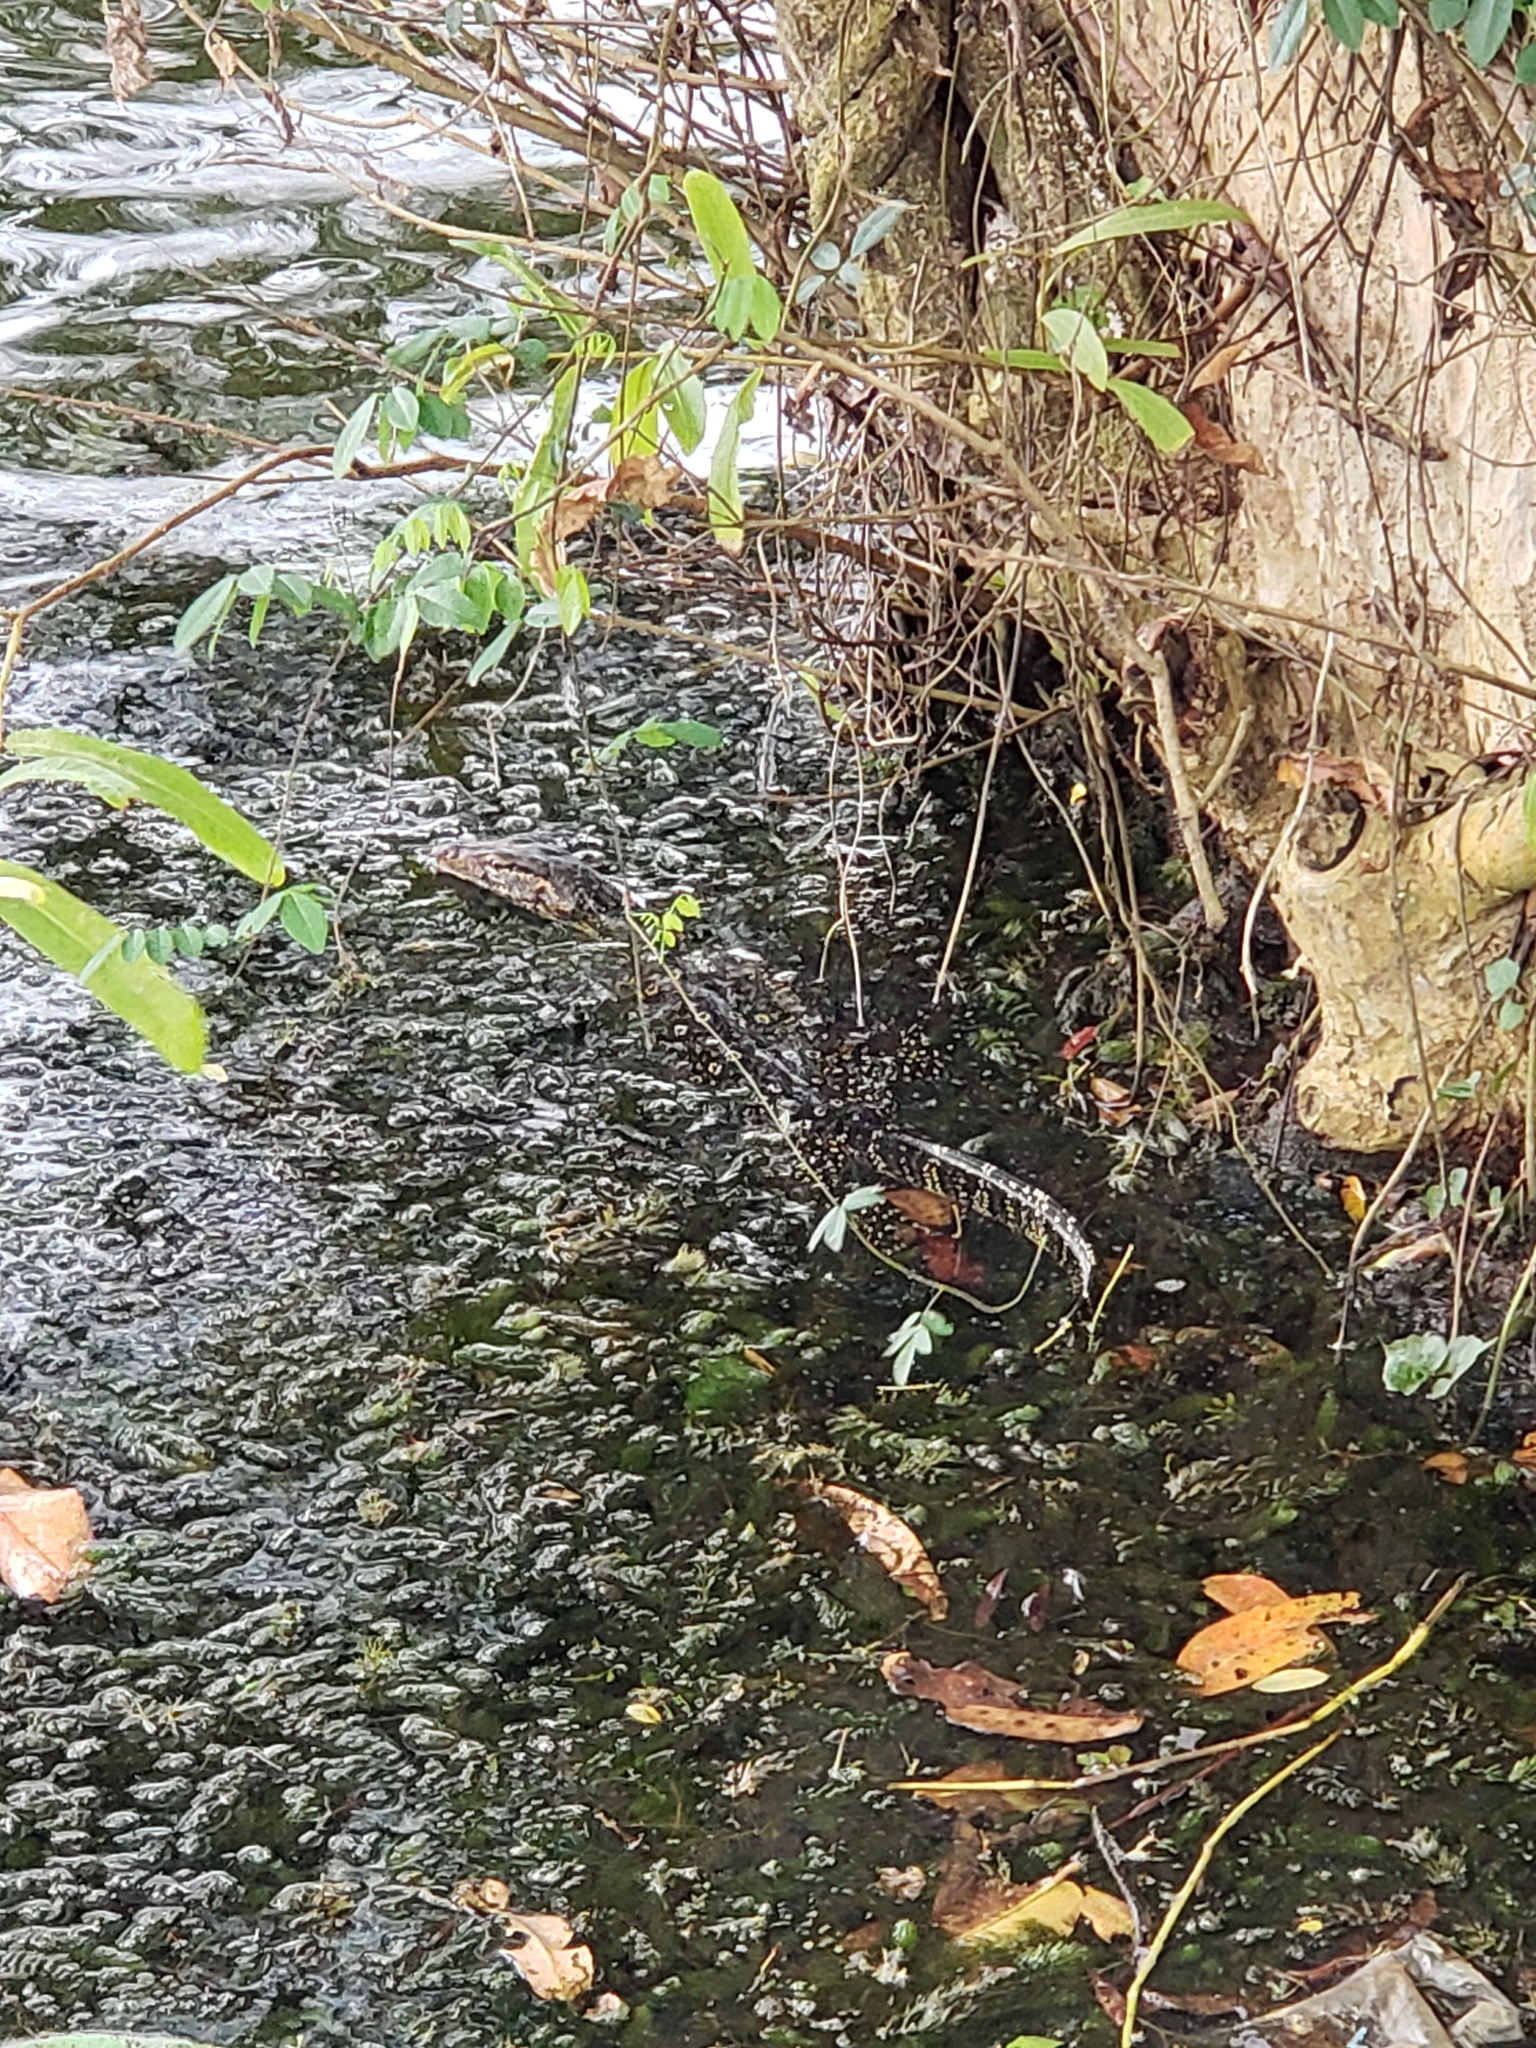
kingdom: Animalia
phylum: Chordata
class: Squamata
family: Varanidae
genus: Varanus
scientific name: Varanus salvator
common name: Common water monitor
